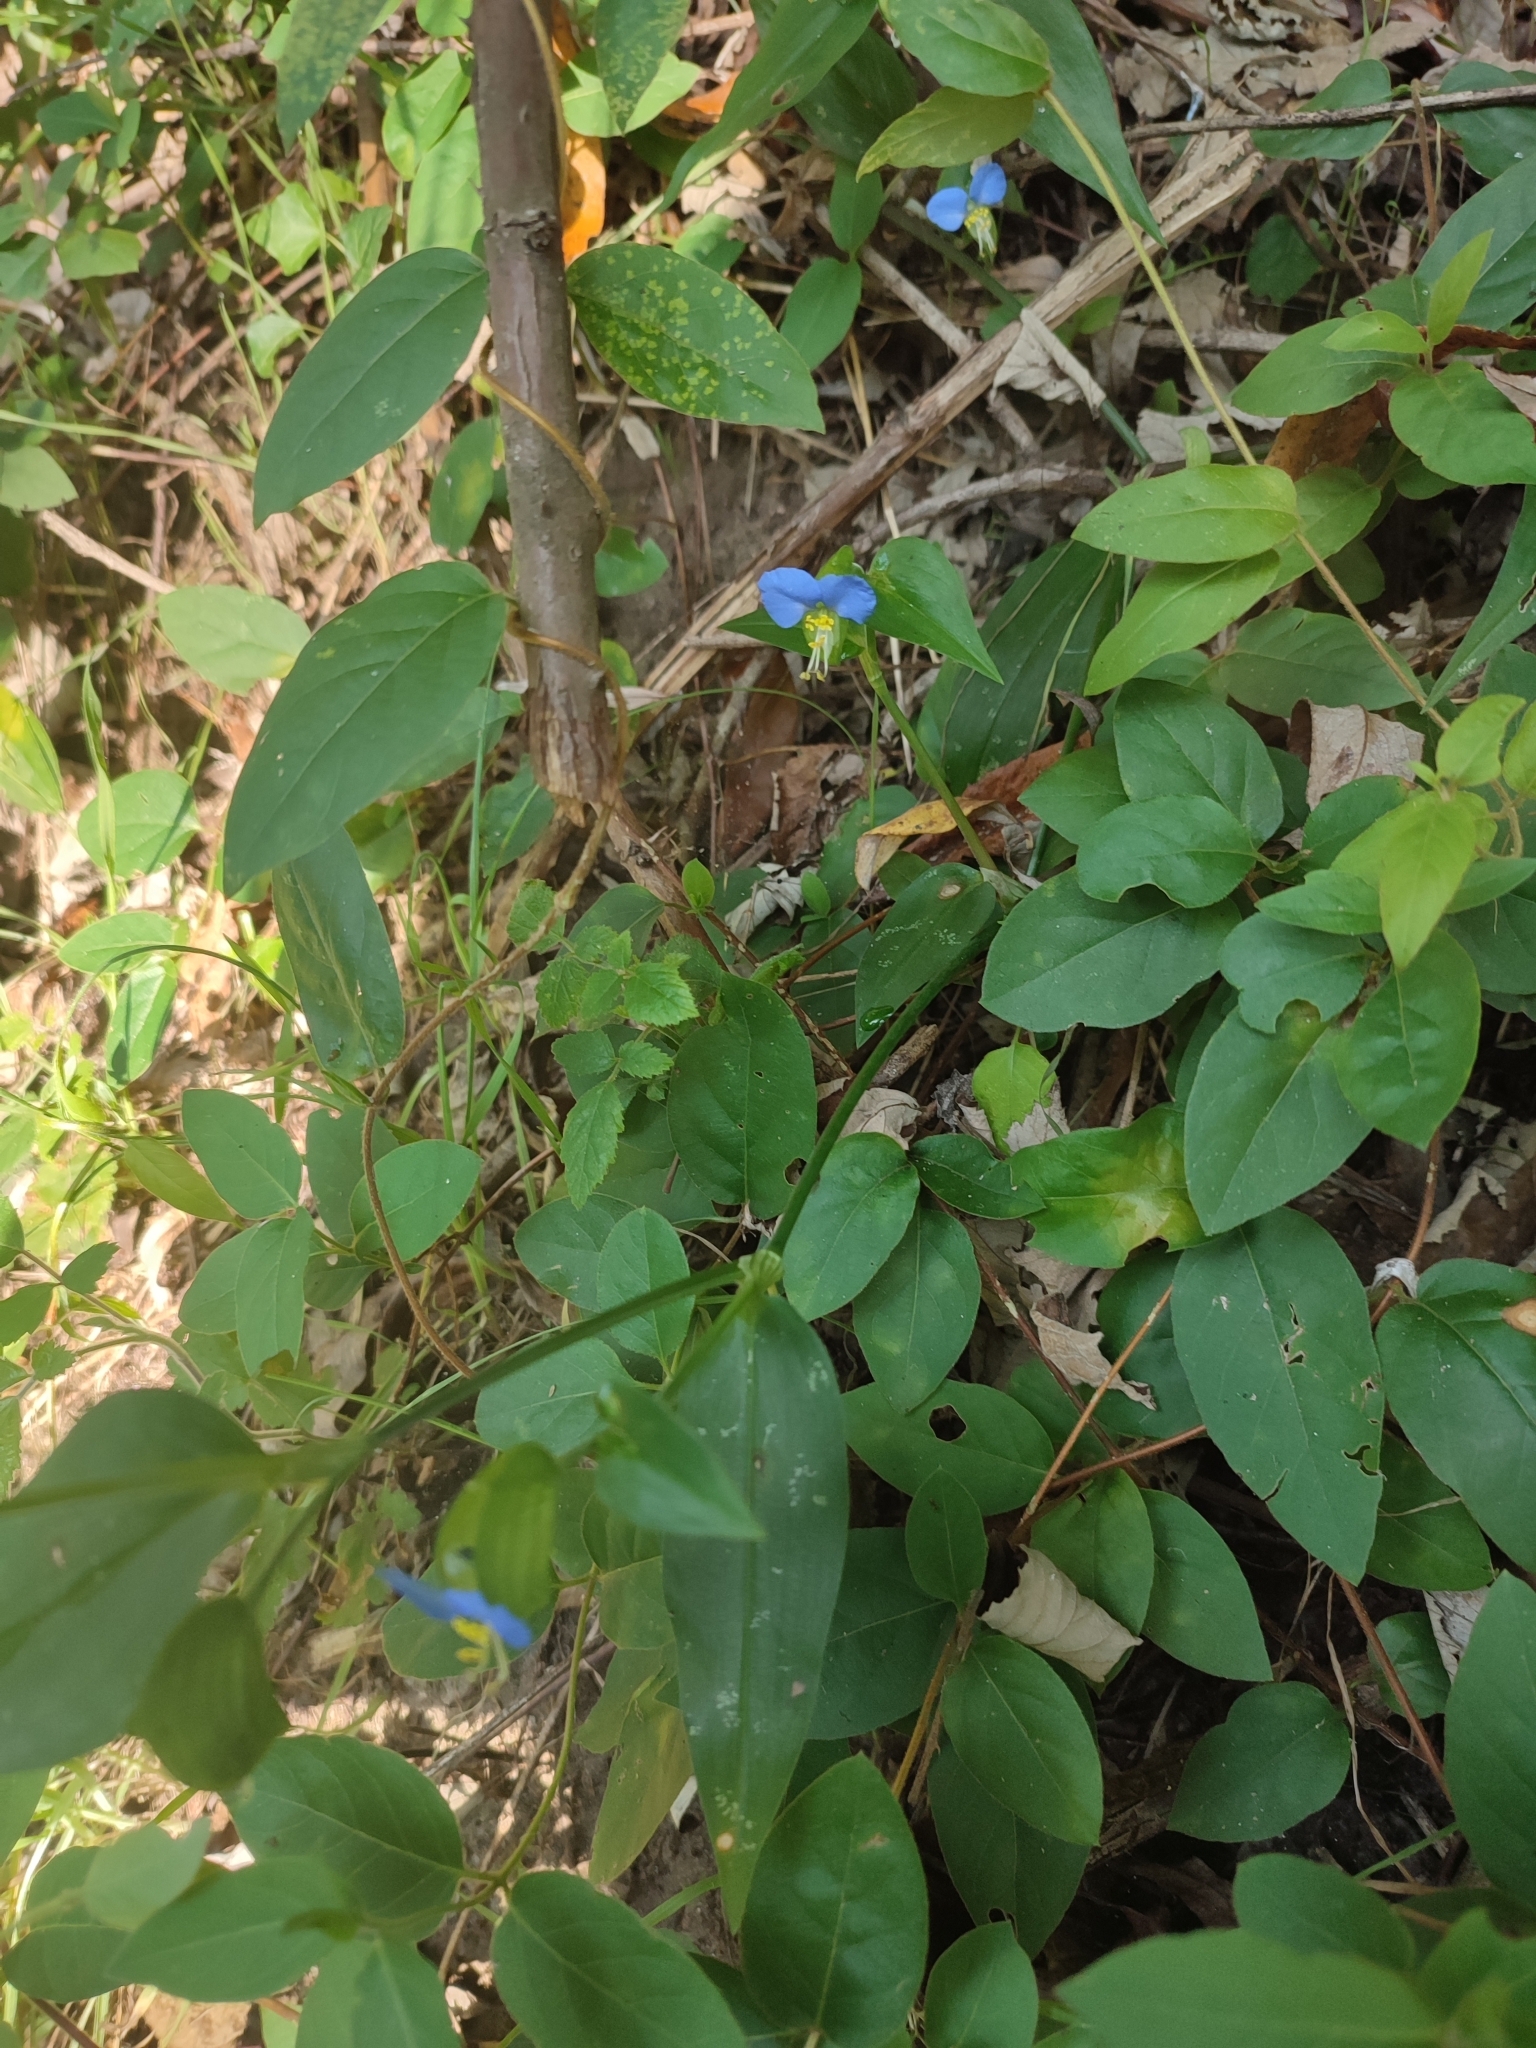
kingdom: Plantae
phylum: Tracheophyta
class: Liliopsida
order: Commelinales
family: Commelinaceae
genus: Commelina
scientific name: Commelina communis
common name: Asiatic dayflower
